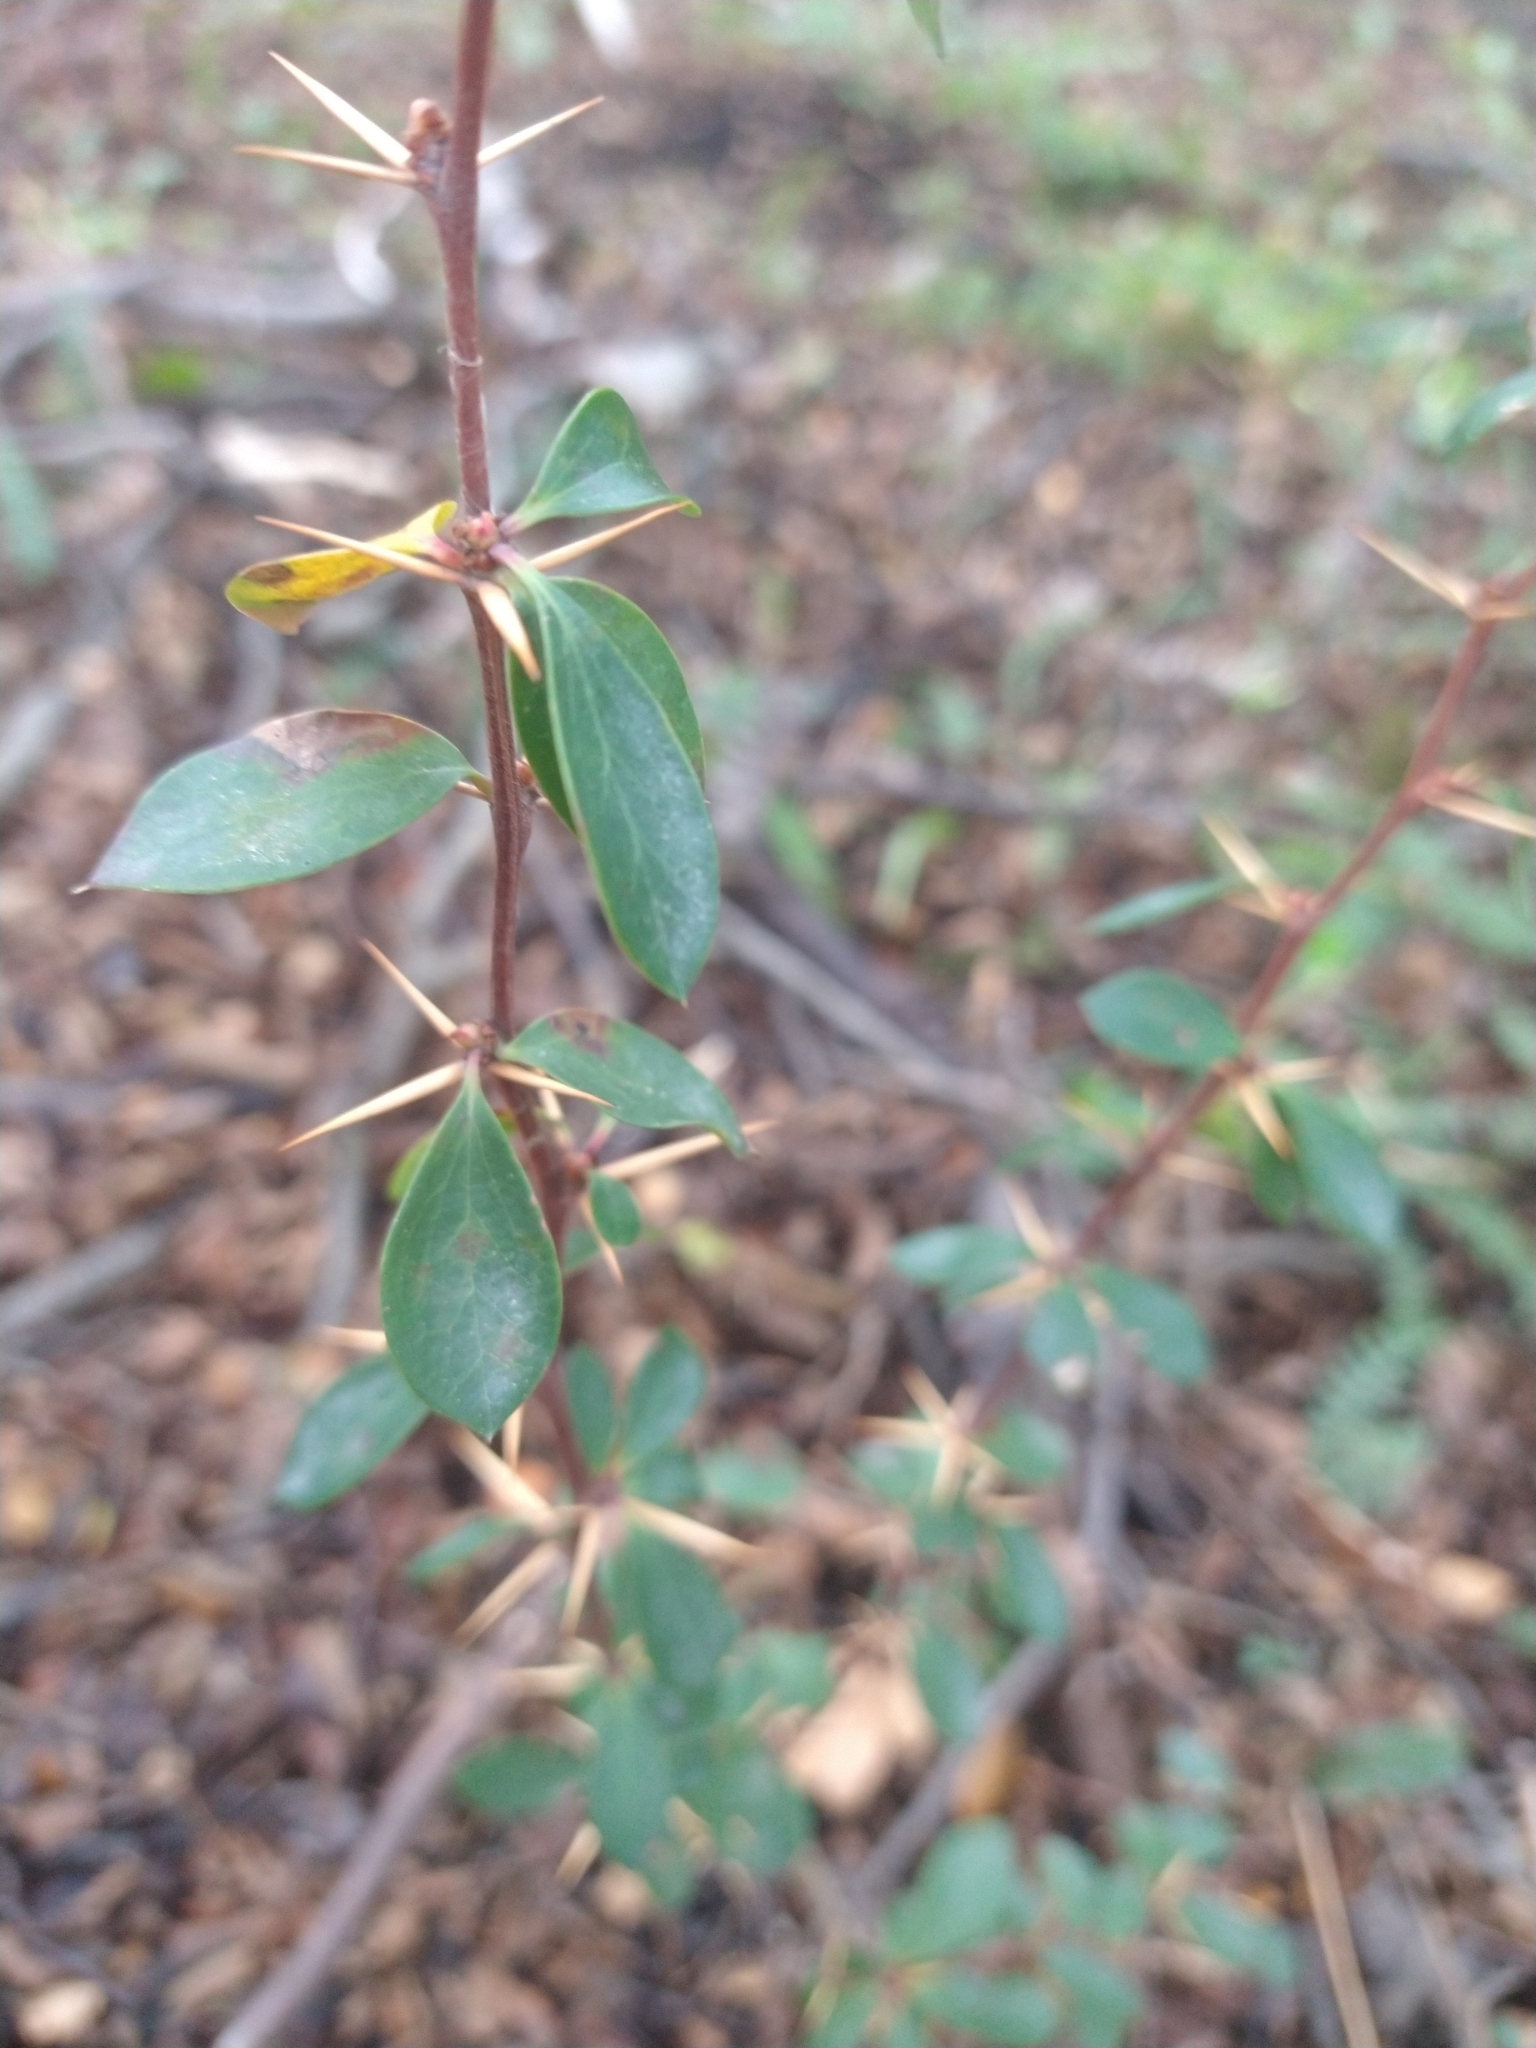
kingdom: Plantae
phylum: Tracheophyta
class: Magnoliopsida
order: Ranunculales
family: Berberidaceae
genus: Berberis
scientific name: Berberis microphylla
